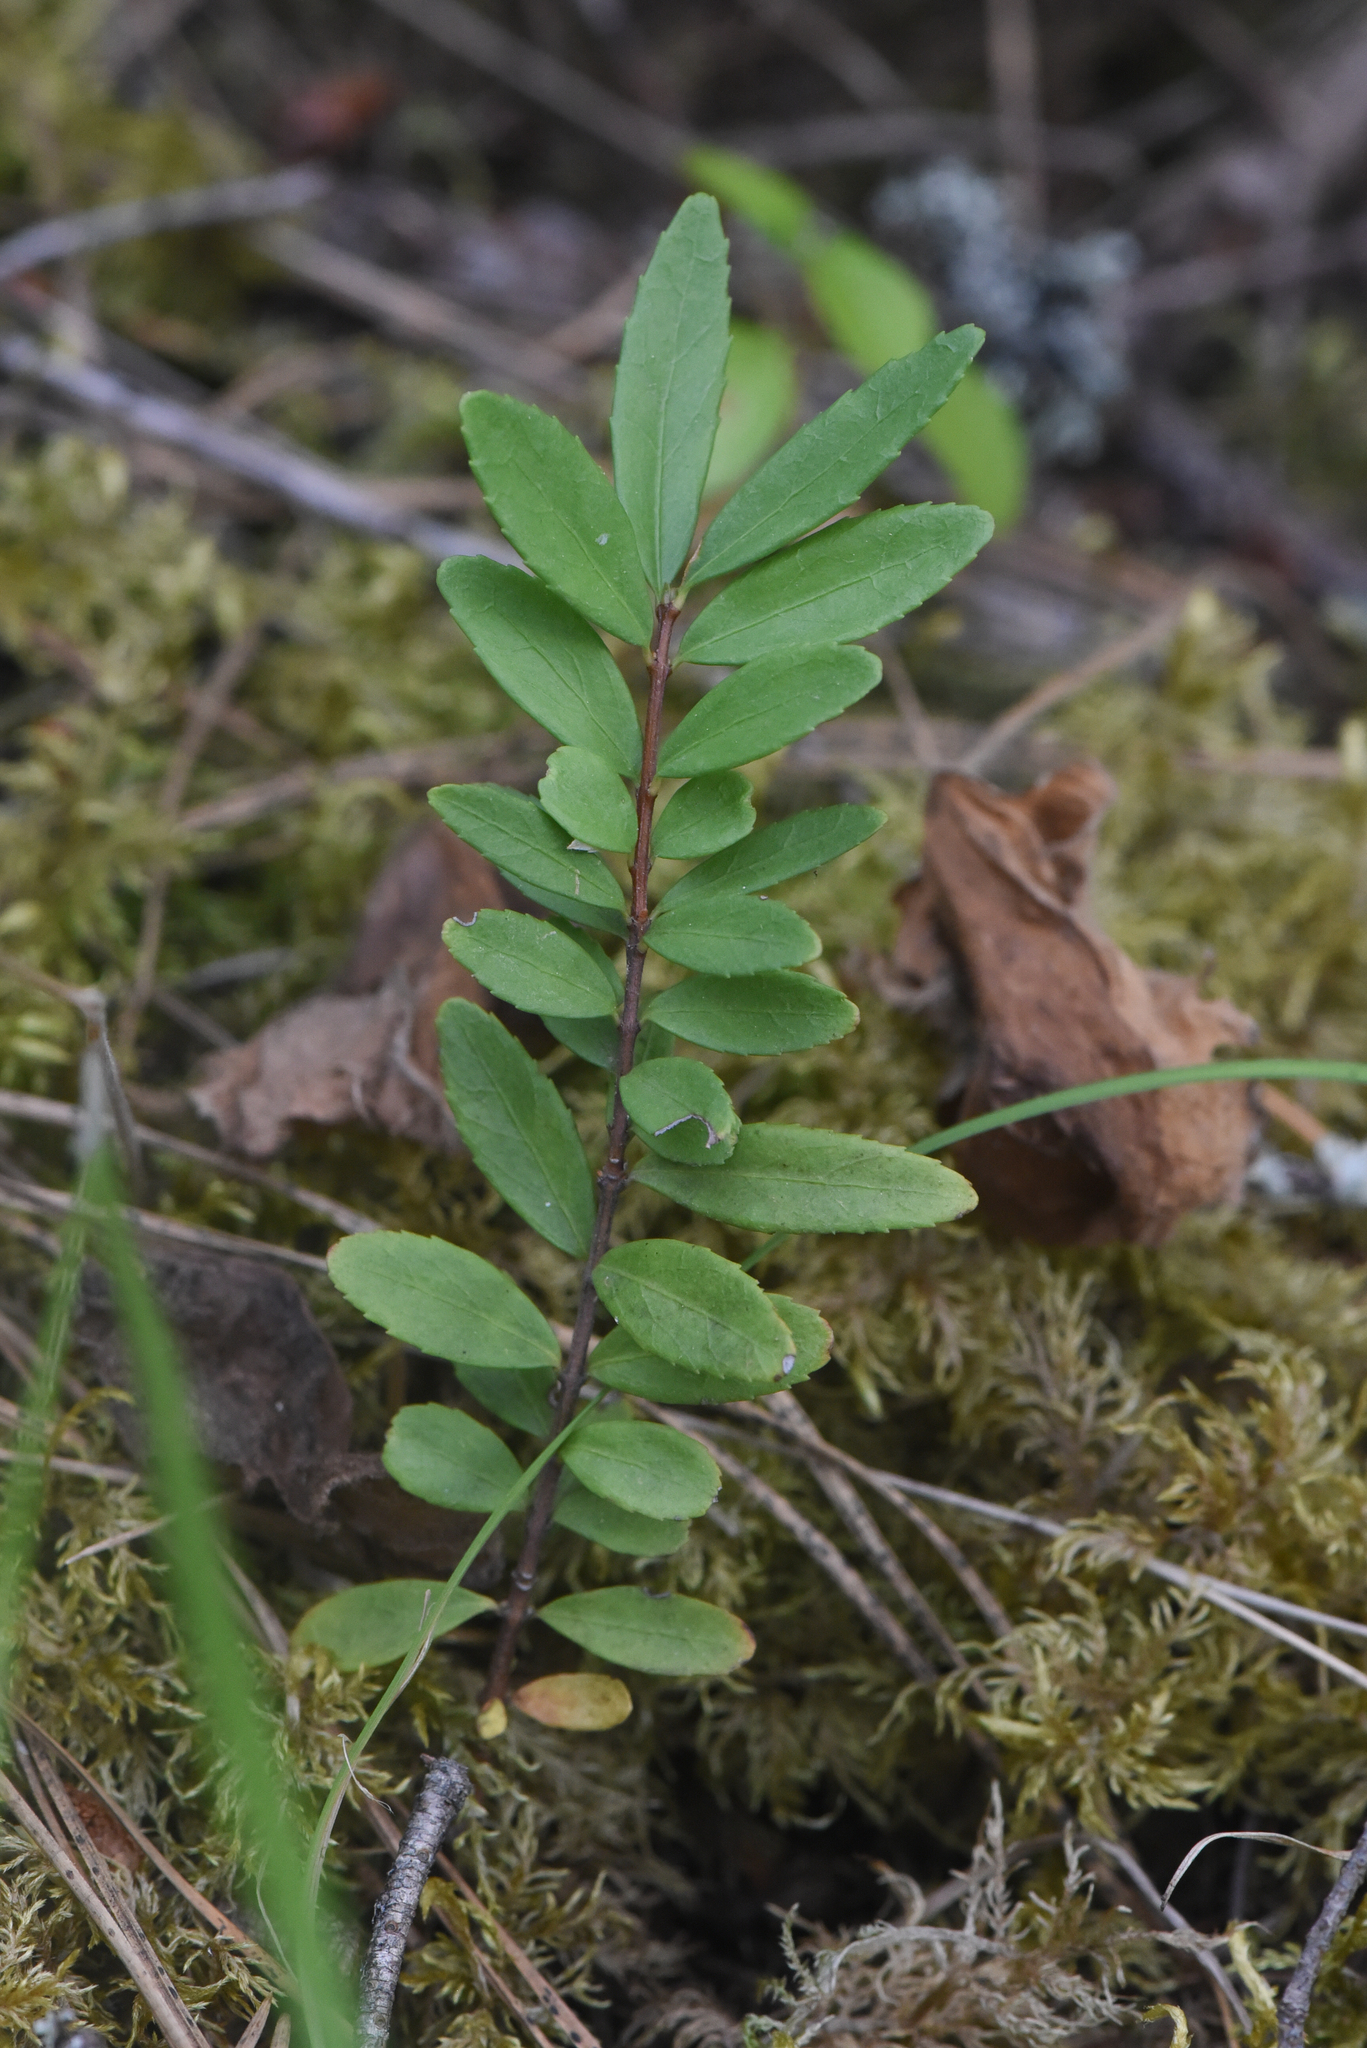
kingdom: Plantae
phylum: Tracheophyta
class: Magnoliopsida
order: Celastrales
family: Celastraceae
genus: Paxistima
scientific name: Paxistima myrsinites
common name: Mountain-lover
